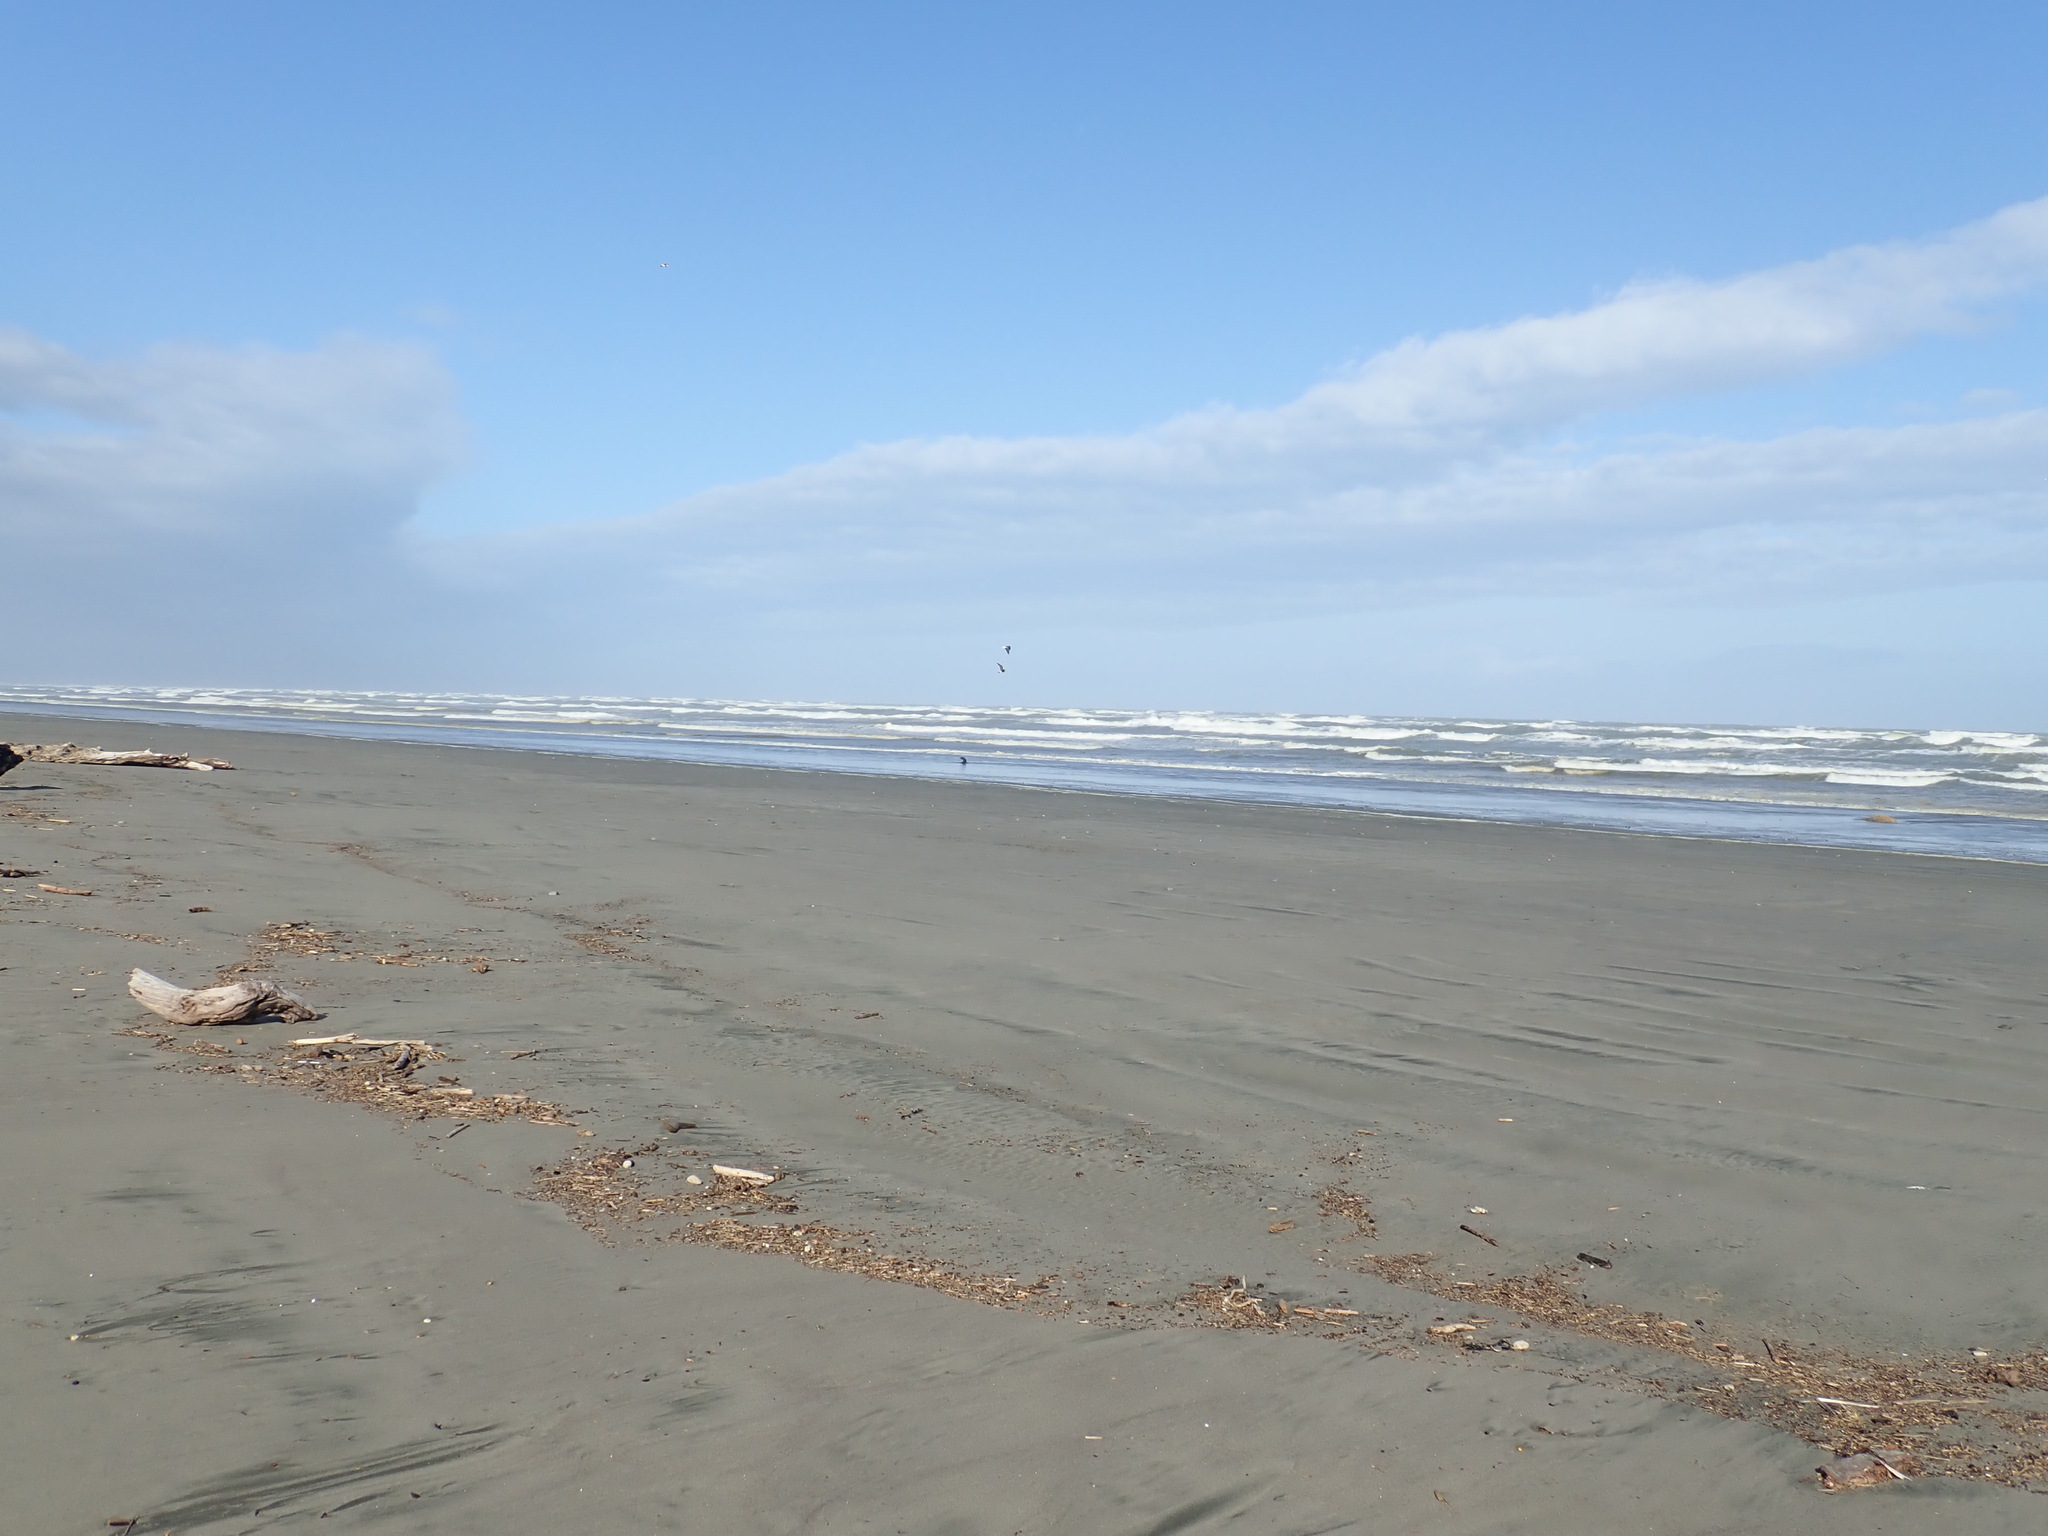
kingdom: Animalia
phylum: Chordata
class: Mammalia
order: Carnivora
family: Otariidae
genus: Arctocephalus
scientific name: Arctocephalus forsteri
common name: New zealand fur seal
